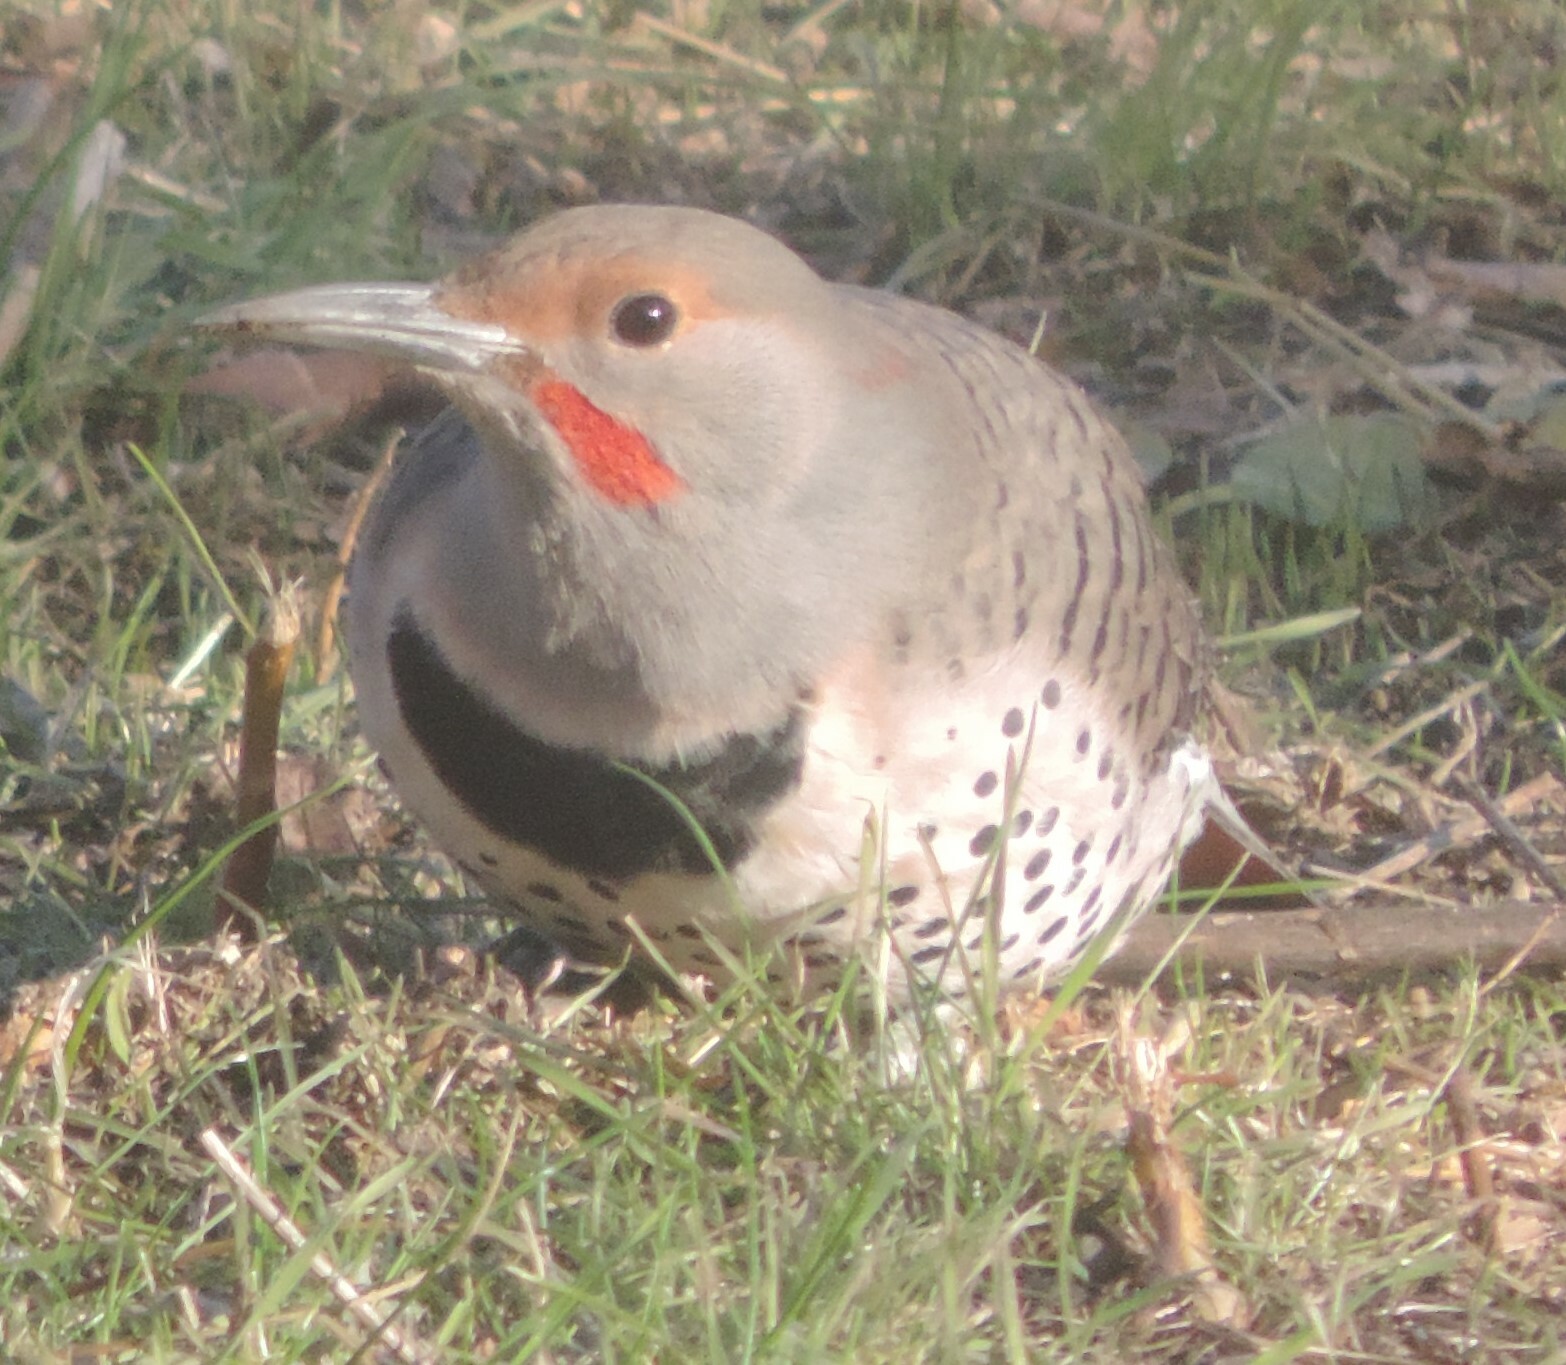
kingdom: Animalia
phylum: Chordata
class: Aves
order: Piciformes
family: Picidae
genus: Colaptes
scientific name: Colaptes auratus
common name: Northern flicker
